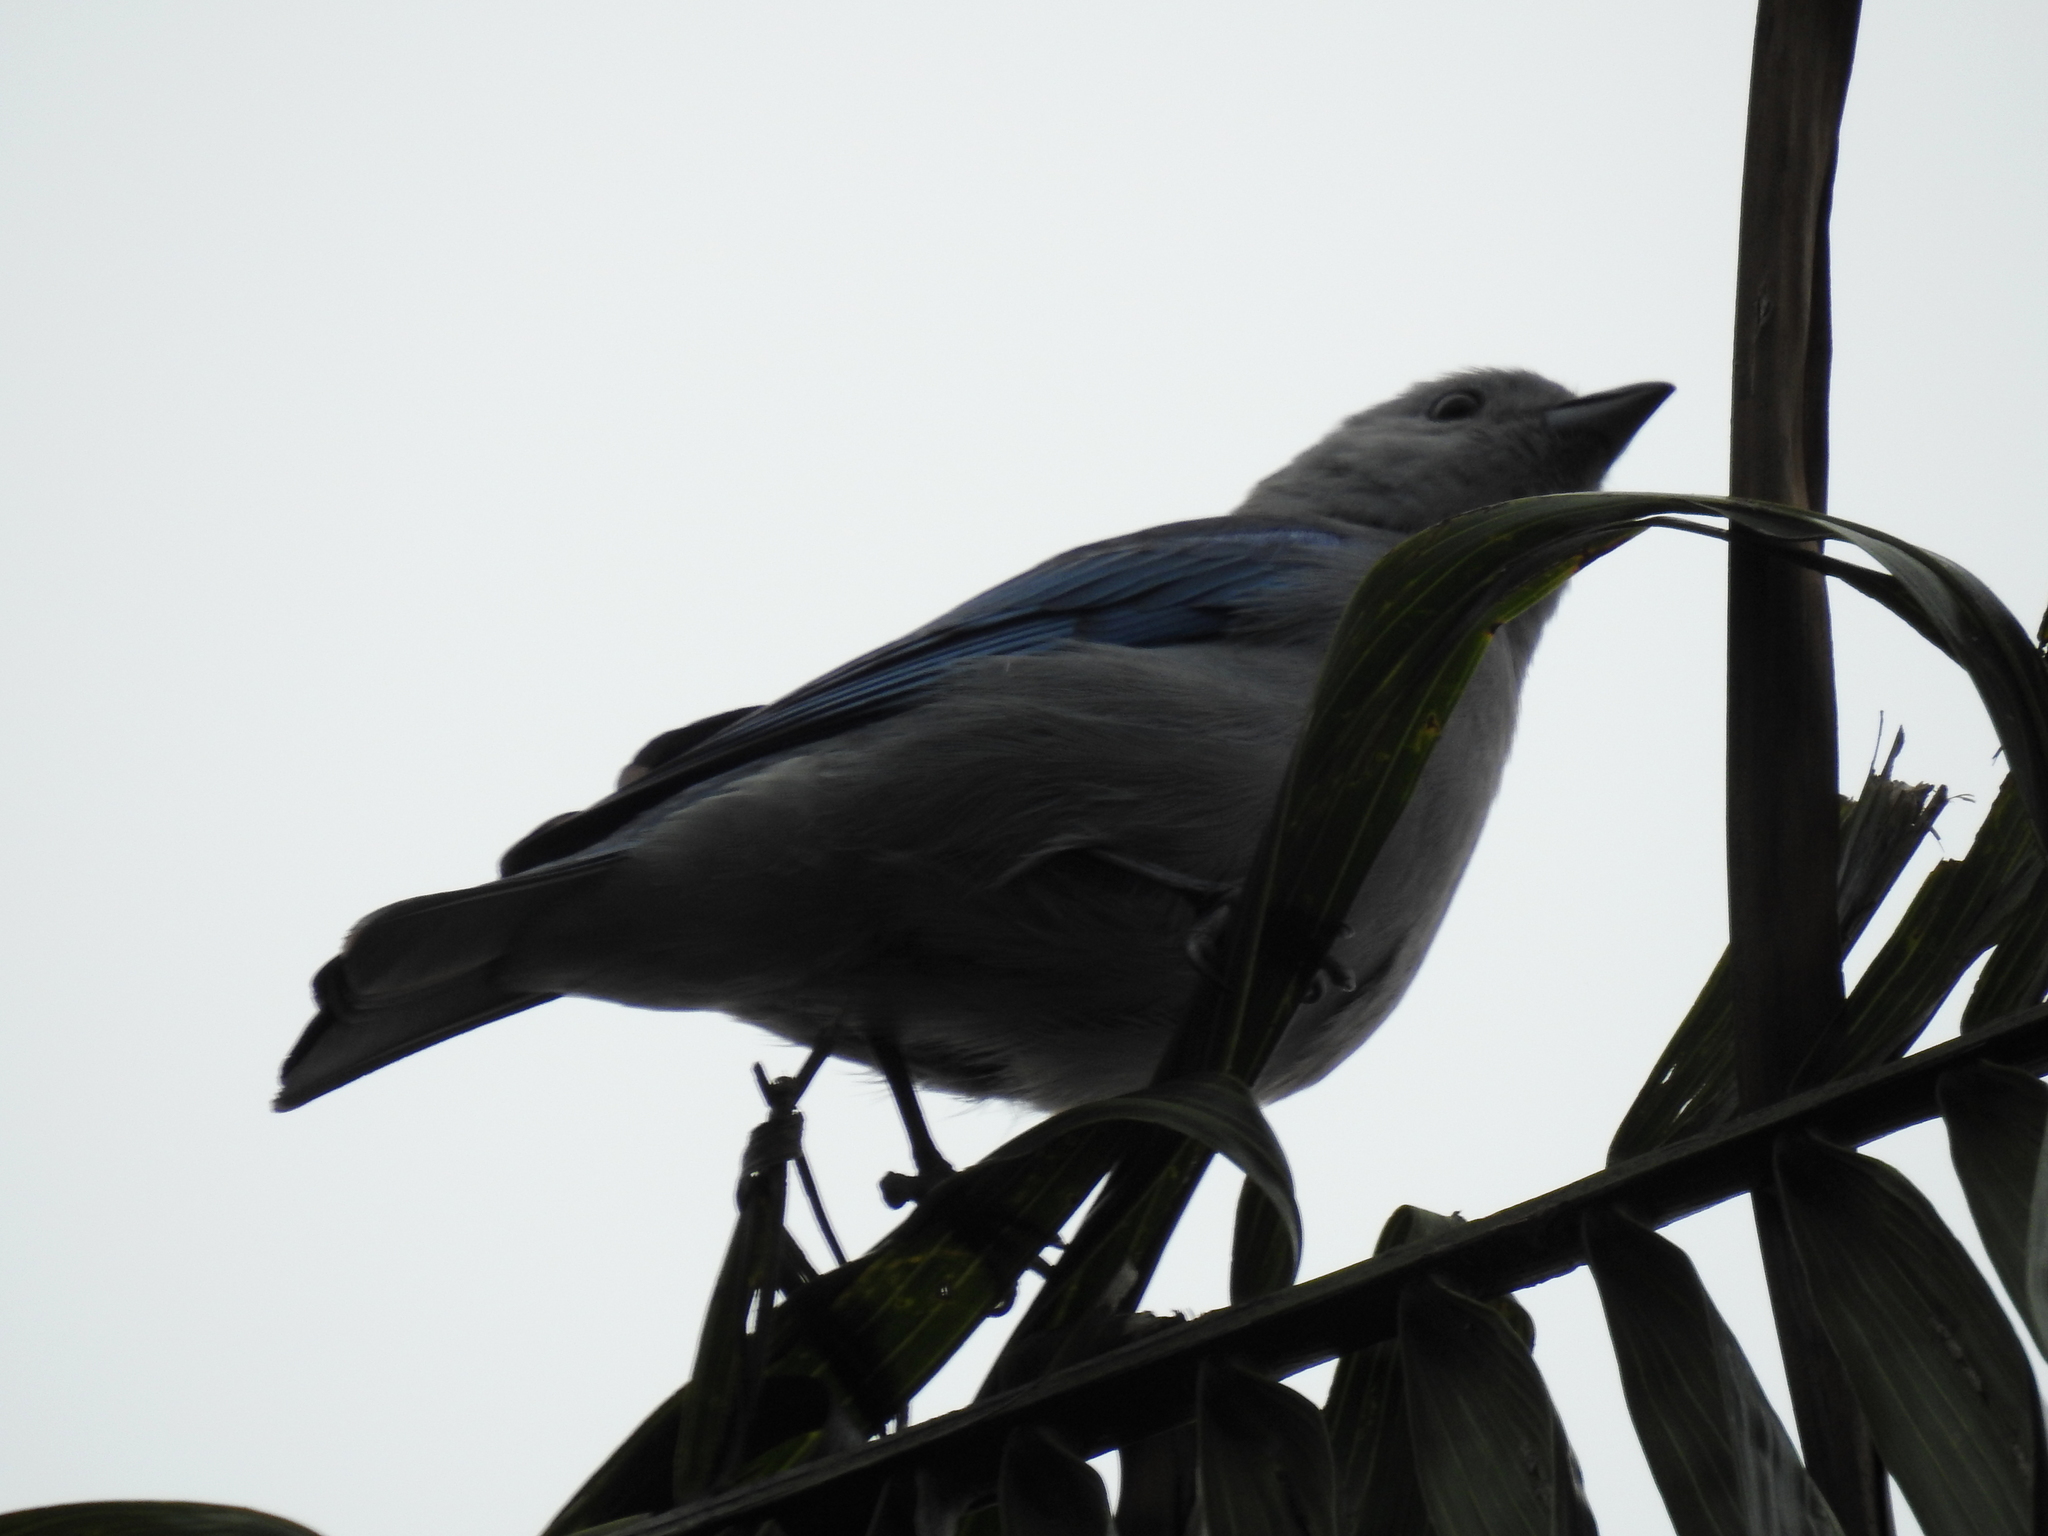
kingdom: Animalia
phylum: Chordata
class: Aves
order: Passeriformes
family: Thraupidae
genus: Thraupis
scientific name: Thraupis episcopus
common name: Blue-grey tanager
